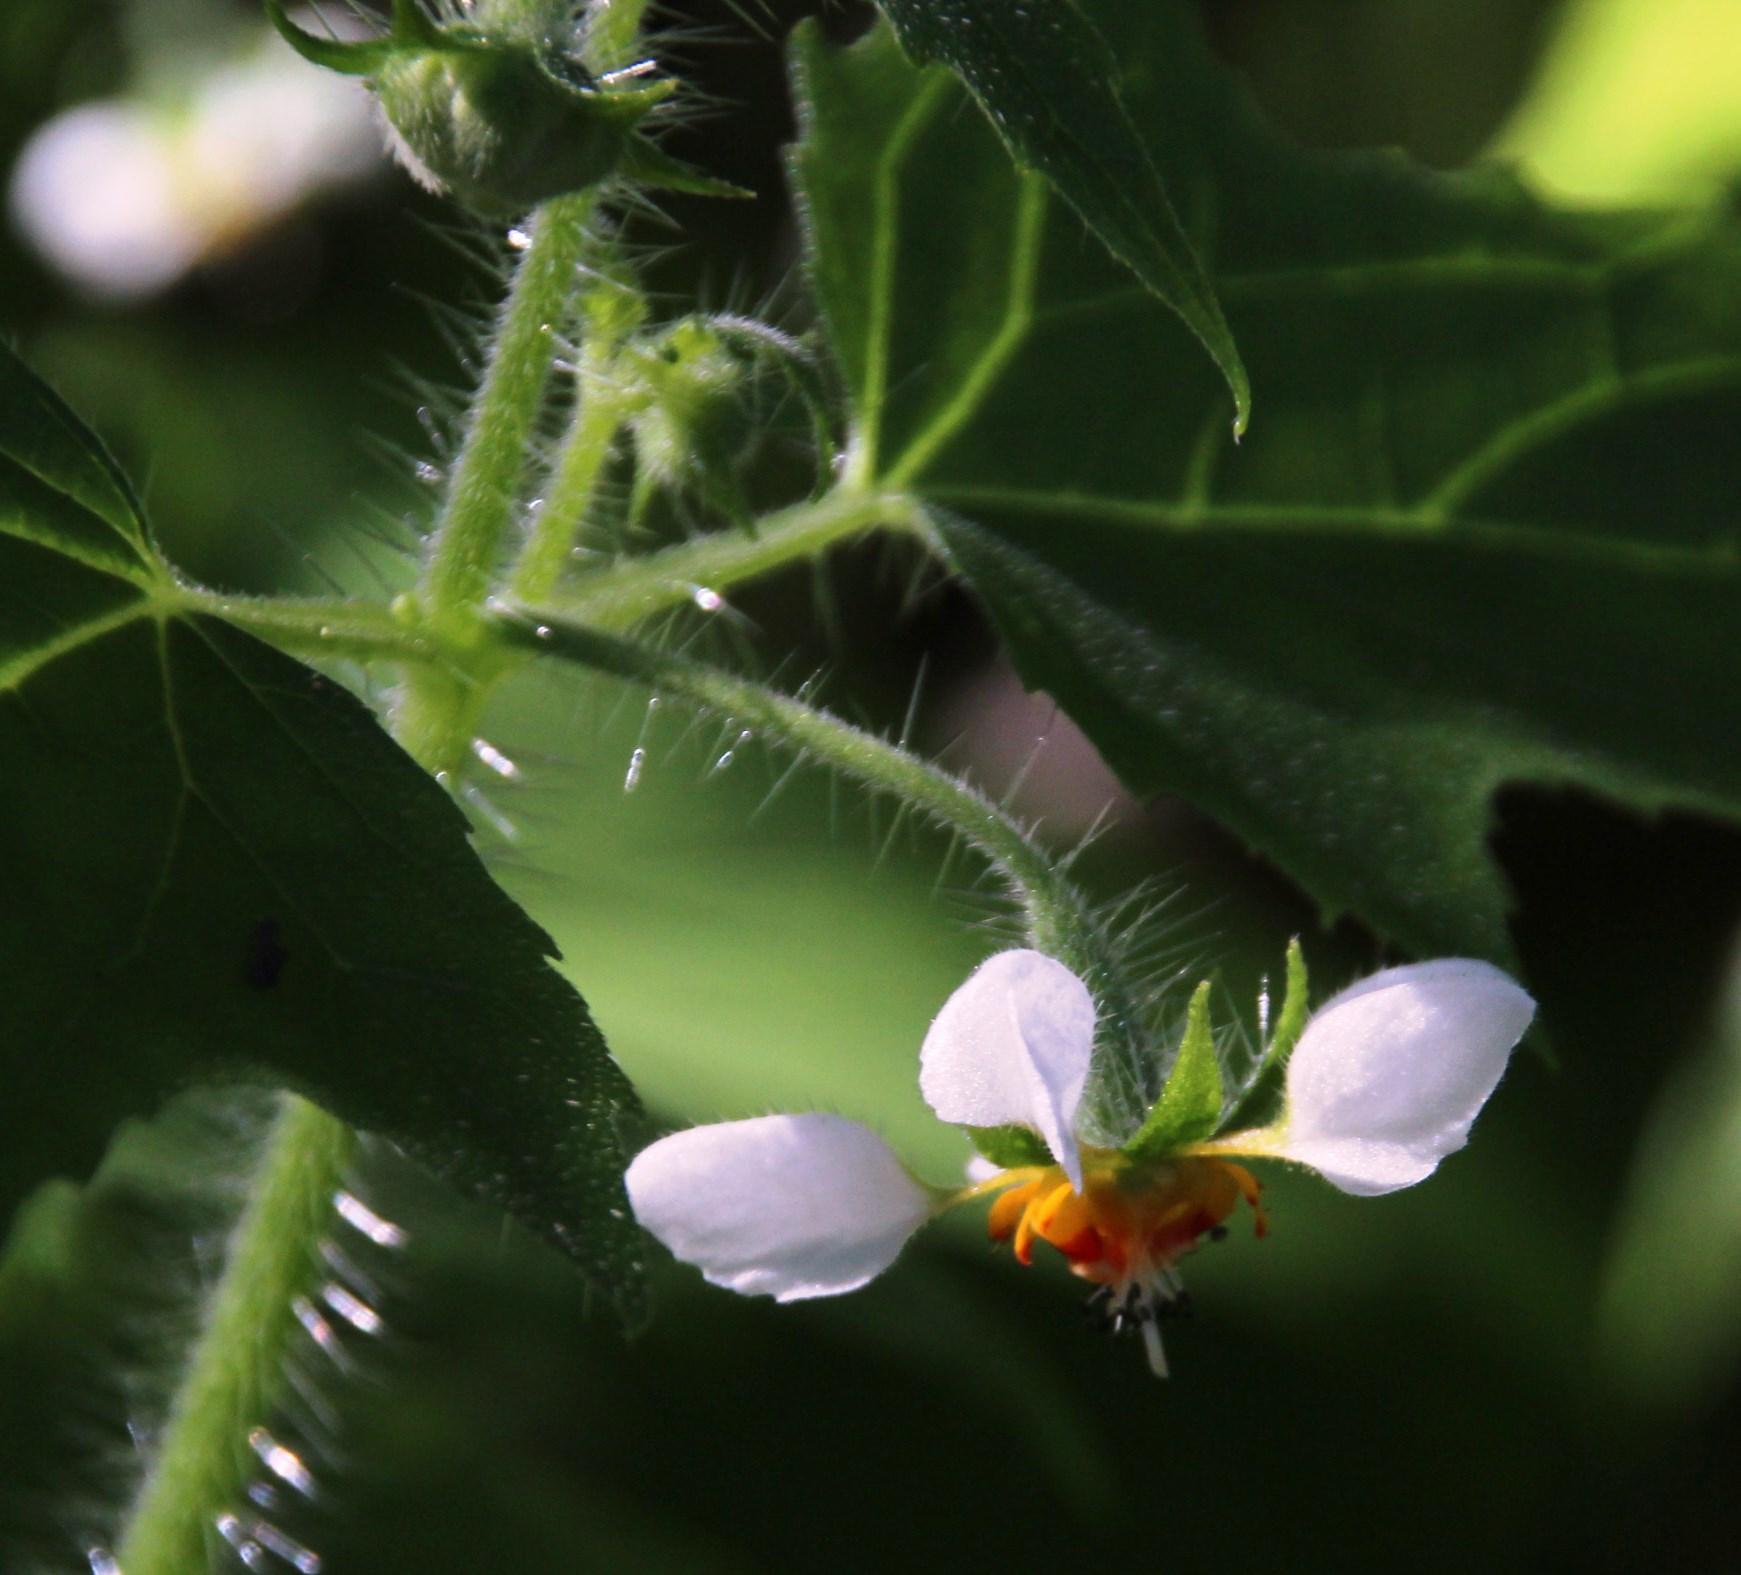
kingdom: Plantae
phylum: Tracheophyta
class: Magnoliopsida
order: Cornales
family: Loasaceae
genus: Loasa
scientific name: Loasa triloba
